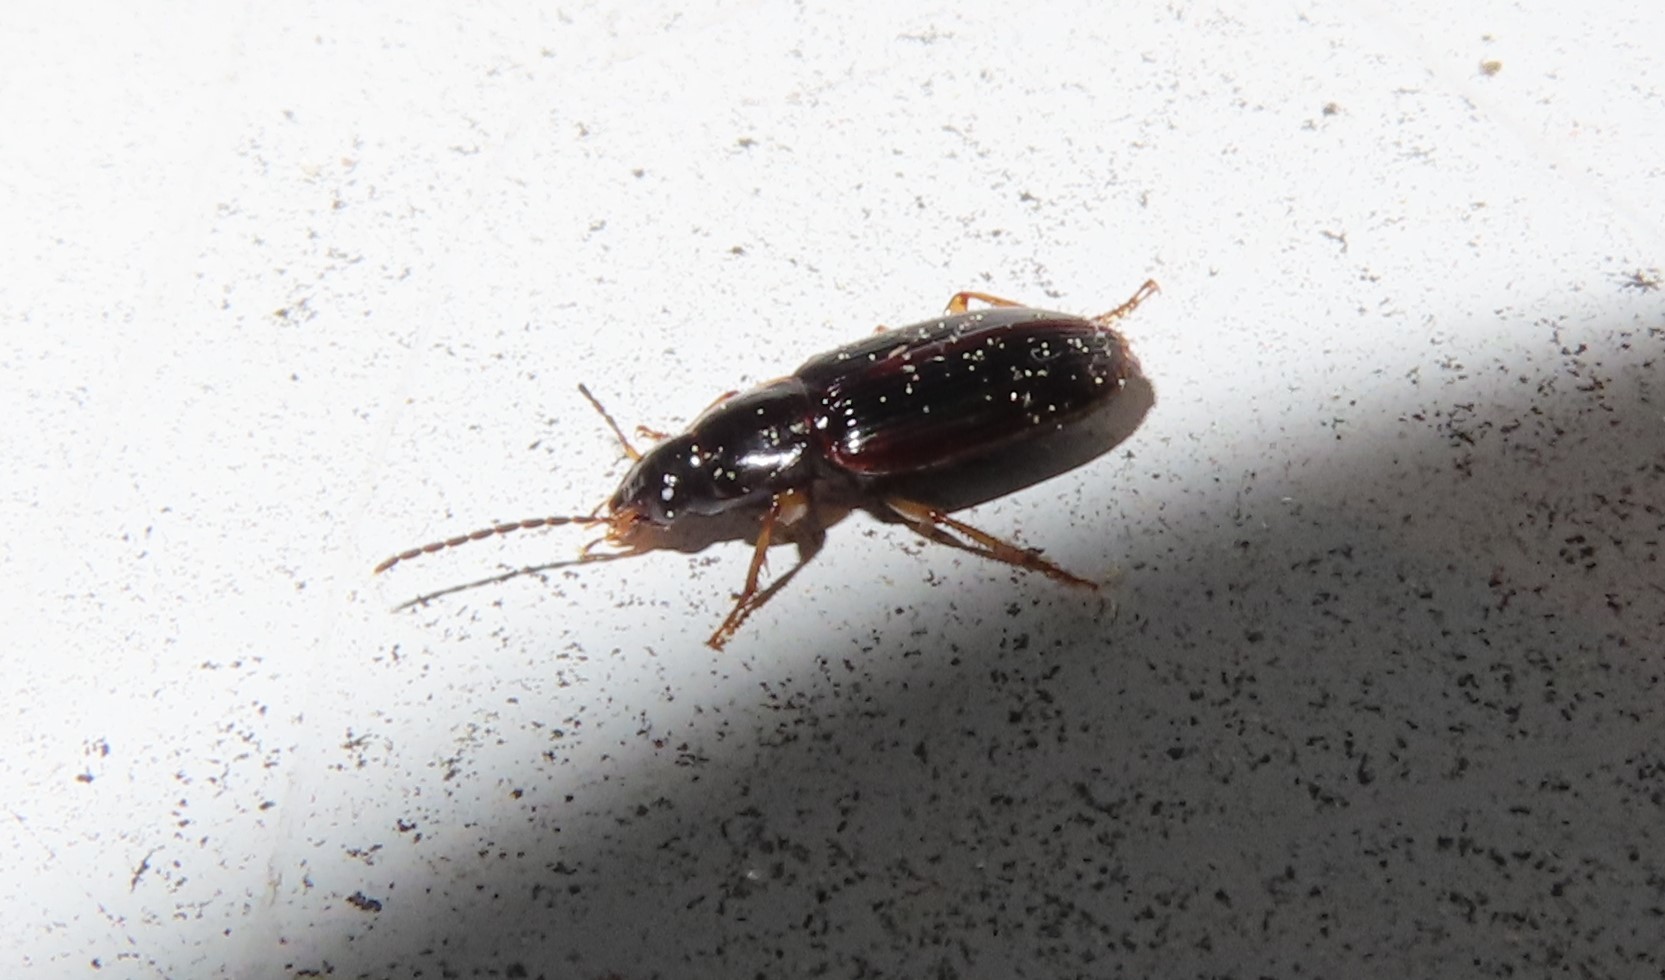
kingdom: Animalia
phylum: Arthropoda
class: Insecta
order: Coleoptera
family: Carabidae
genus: Stenolophus
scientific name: Stenolophus ochropezus
